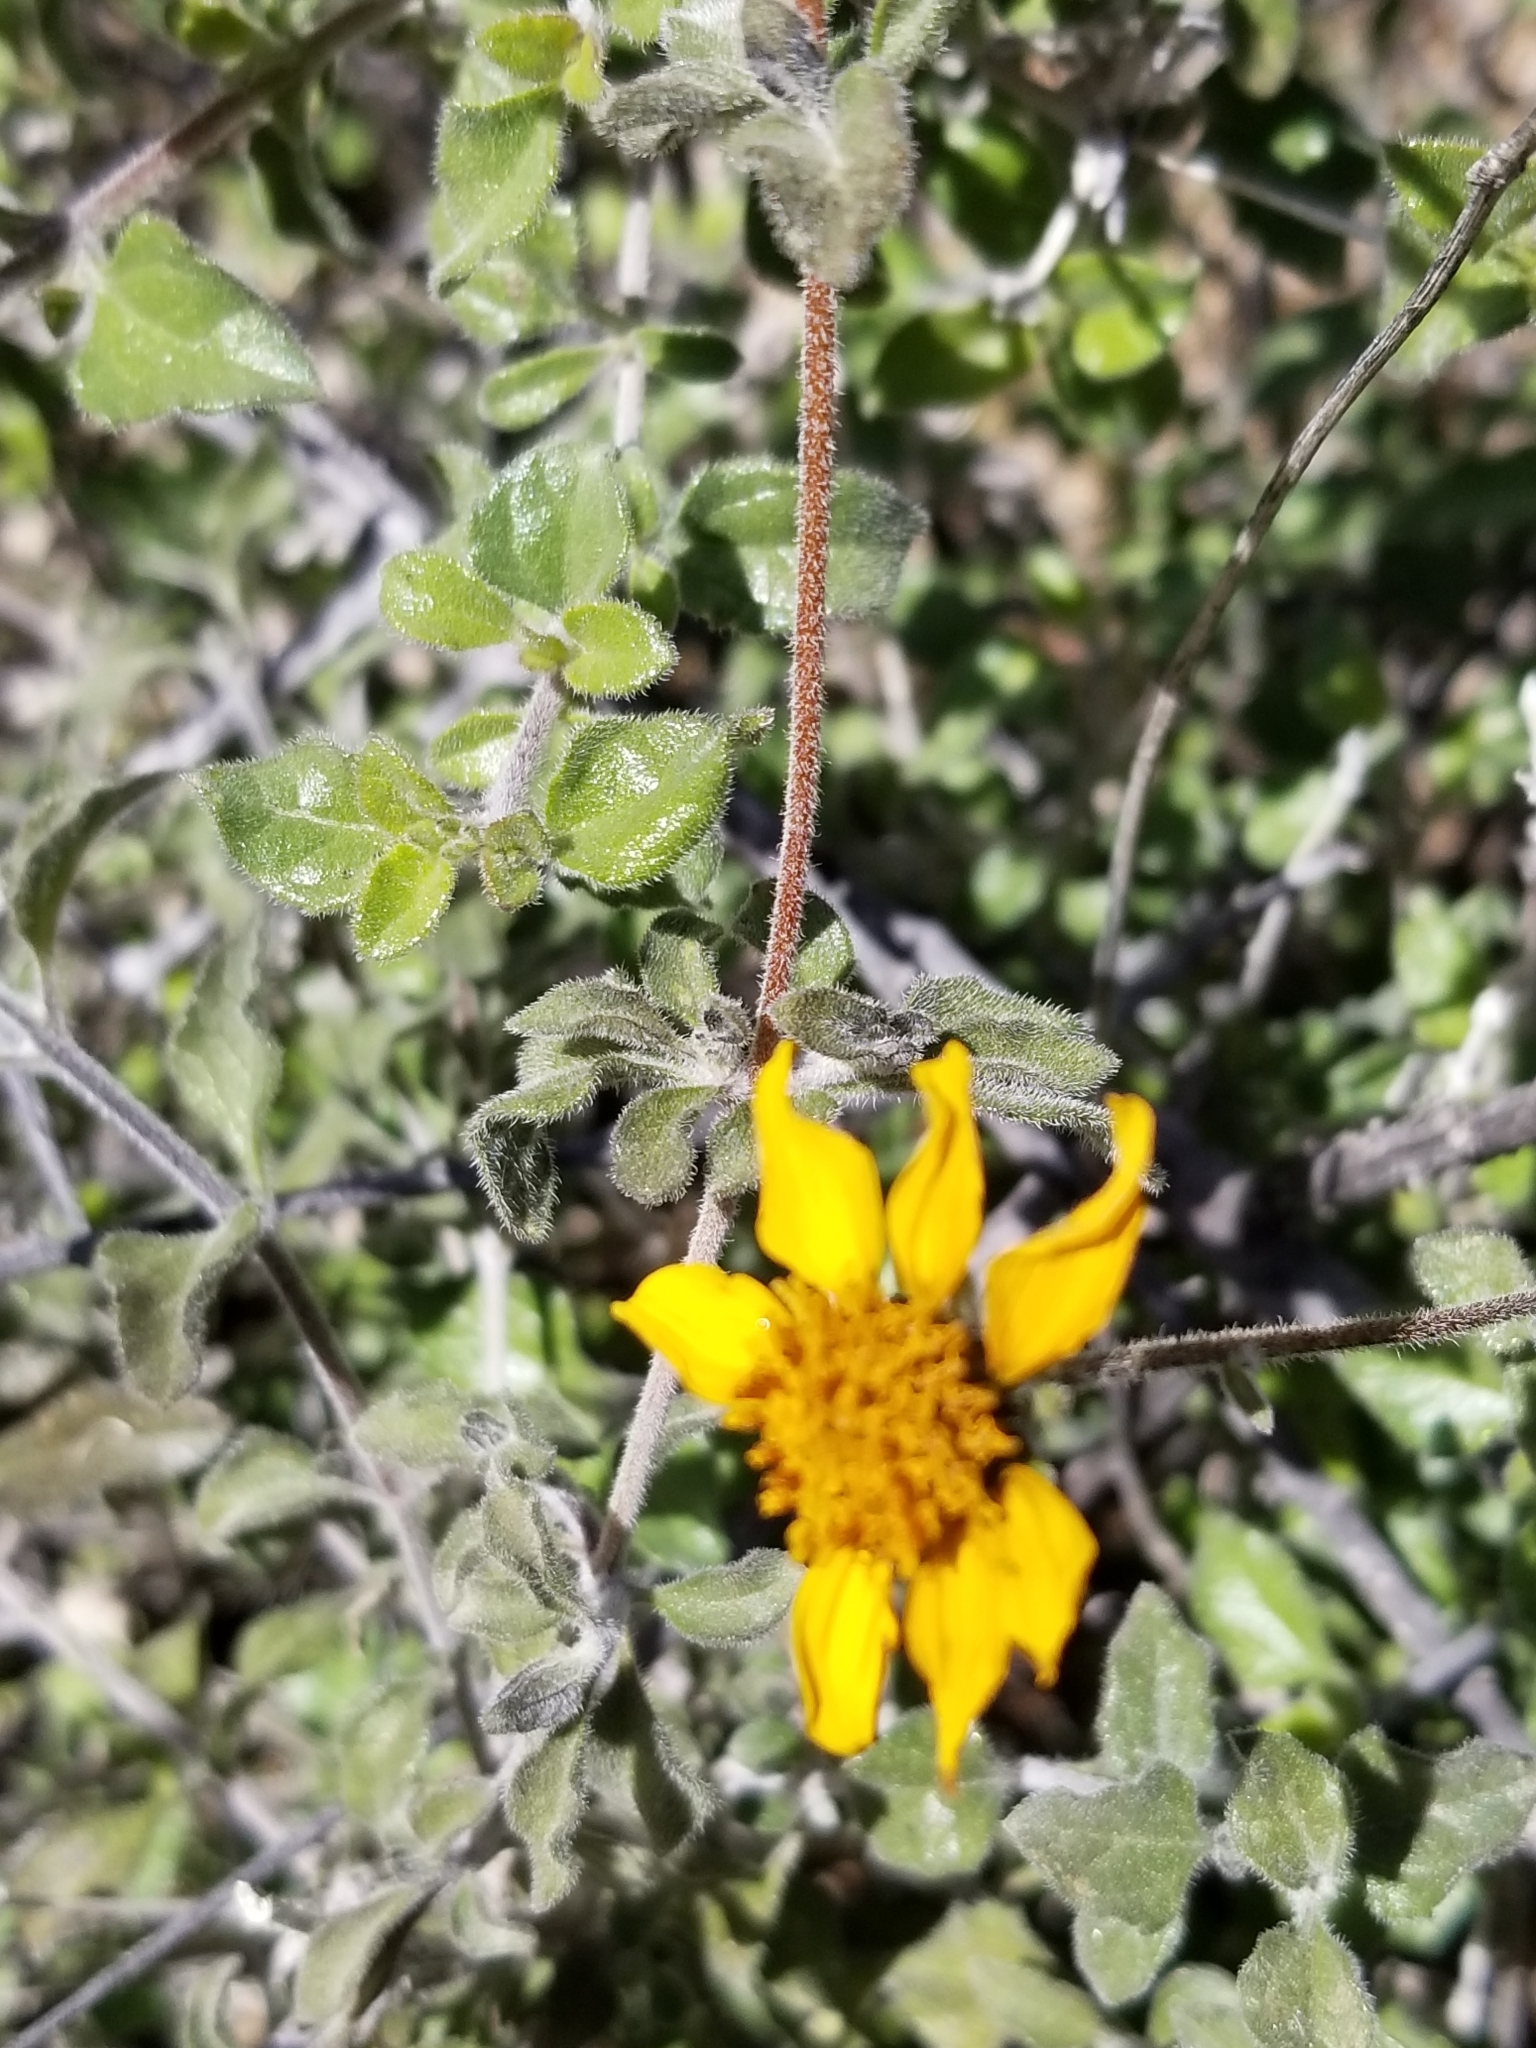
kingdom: Plantae
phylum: Tracheophyta
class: Magnoliopsida
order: Asterales
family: Asteraceae
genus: Bahiopsis
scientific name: Bahiopsis parishii
